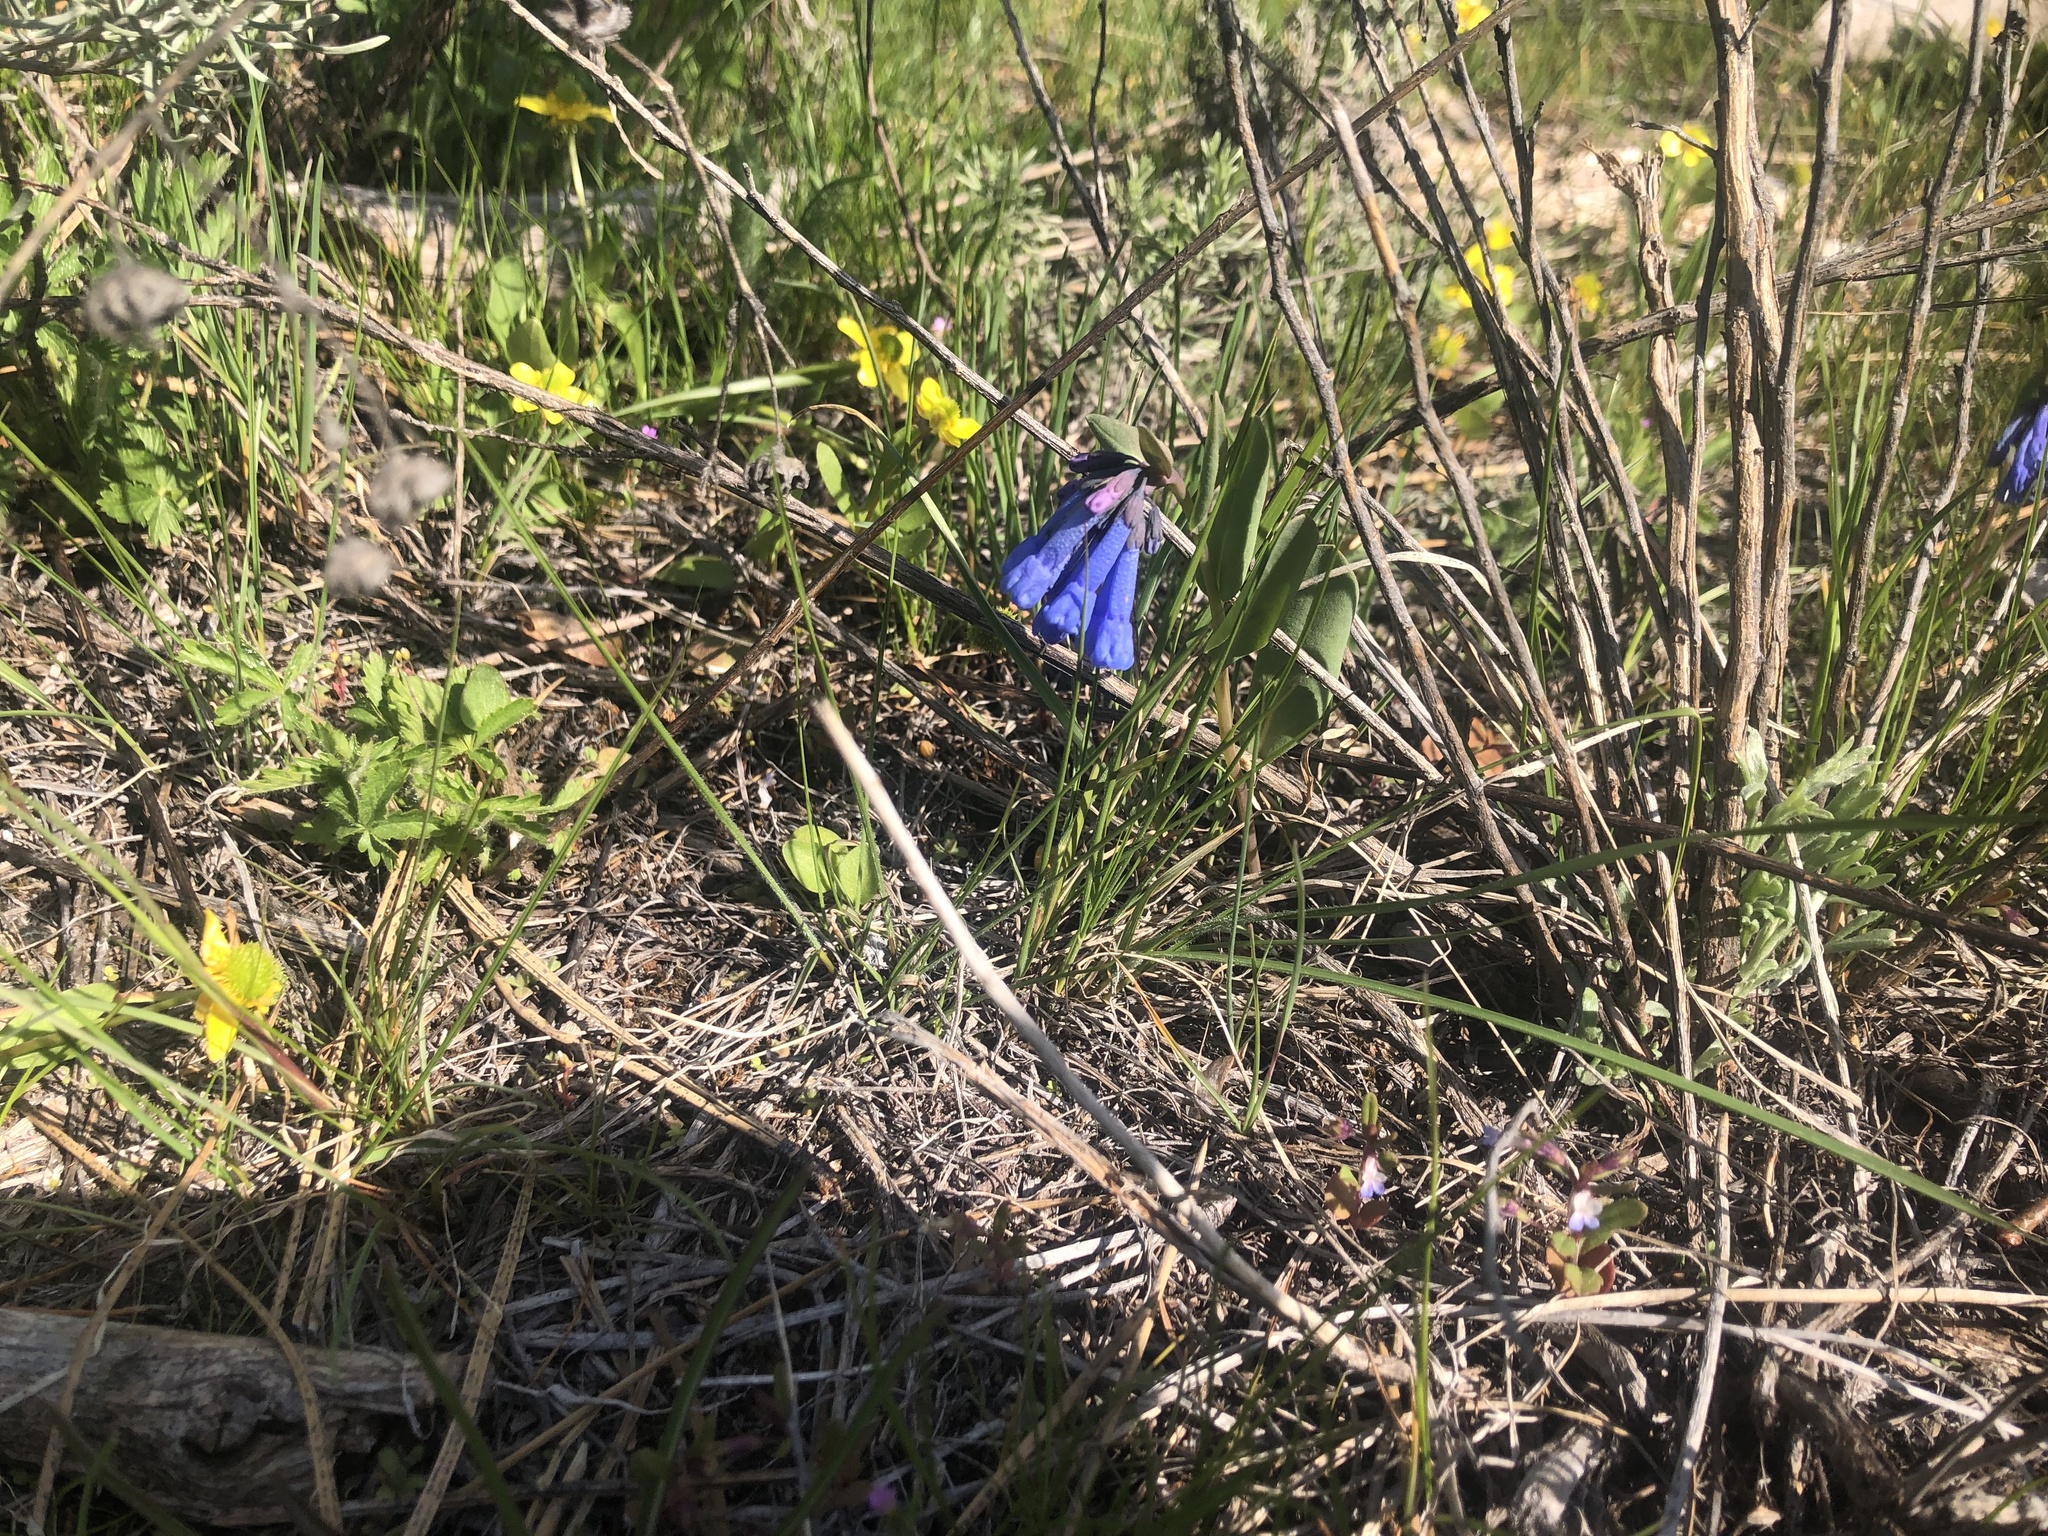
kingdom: Plantae
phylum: Tracheophyta
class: Magnoliopsida
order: Boraginales
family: Boraginaceae
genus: Mertensia
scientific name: Mertensia longiflora
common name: Large-flowered bluebells
